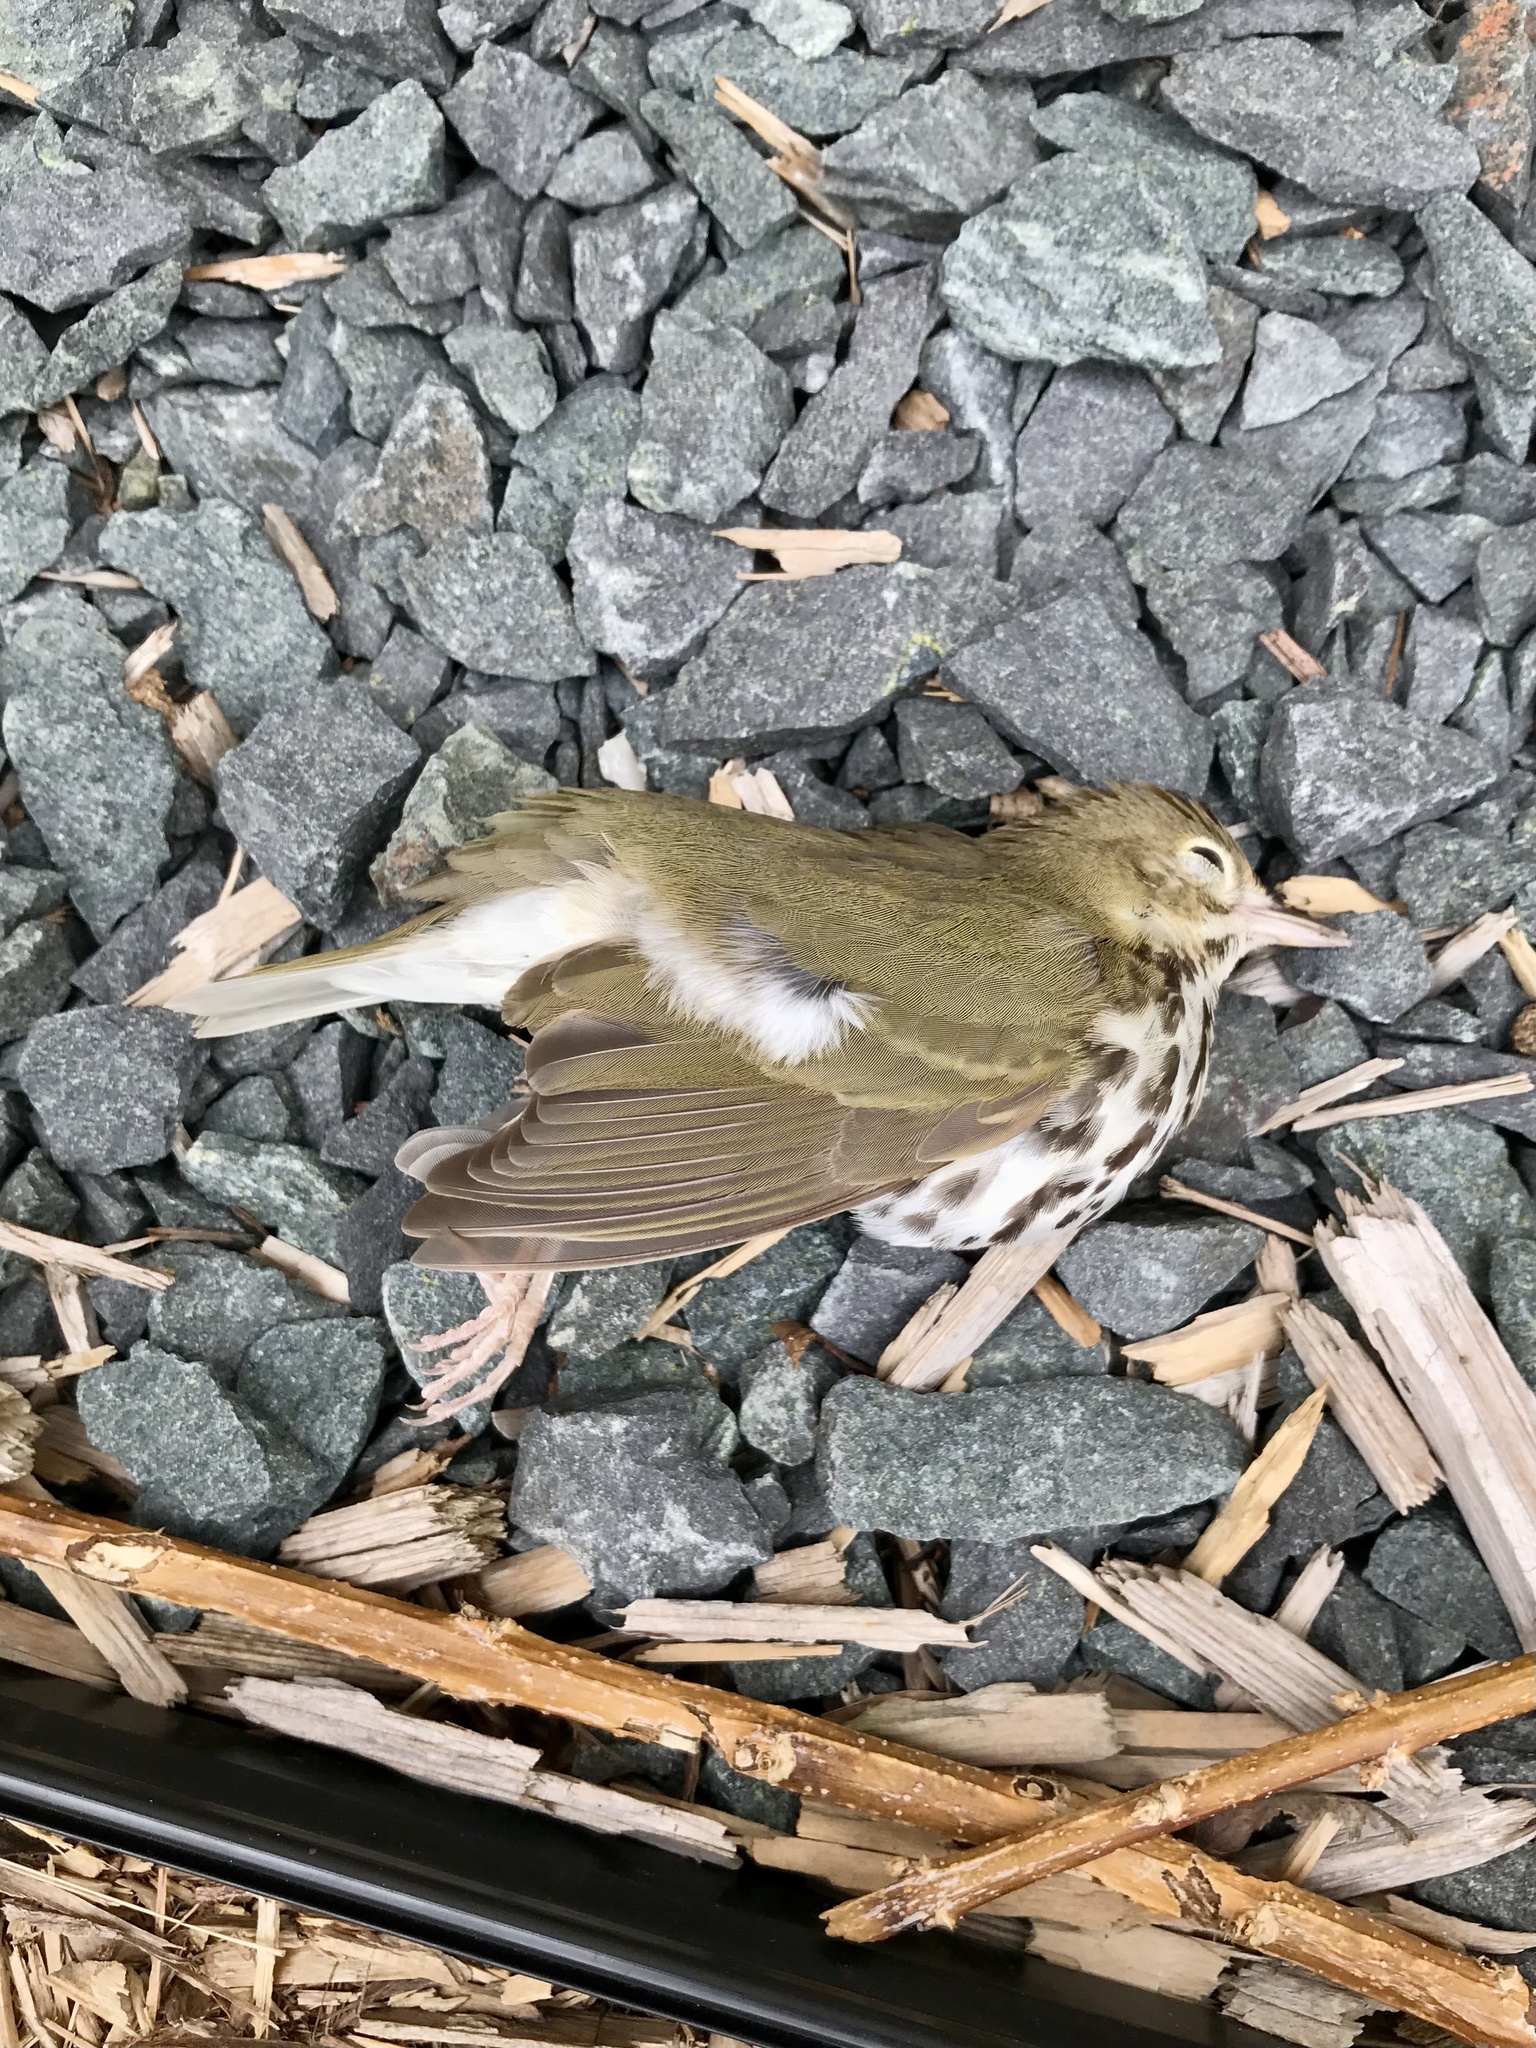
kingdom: Animalia
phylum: Chordata
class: Aves
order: Passeriformes
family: Parulidae
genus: Seiurus
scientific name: Seiurus aurocapilla
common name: Ovenbird
